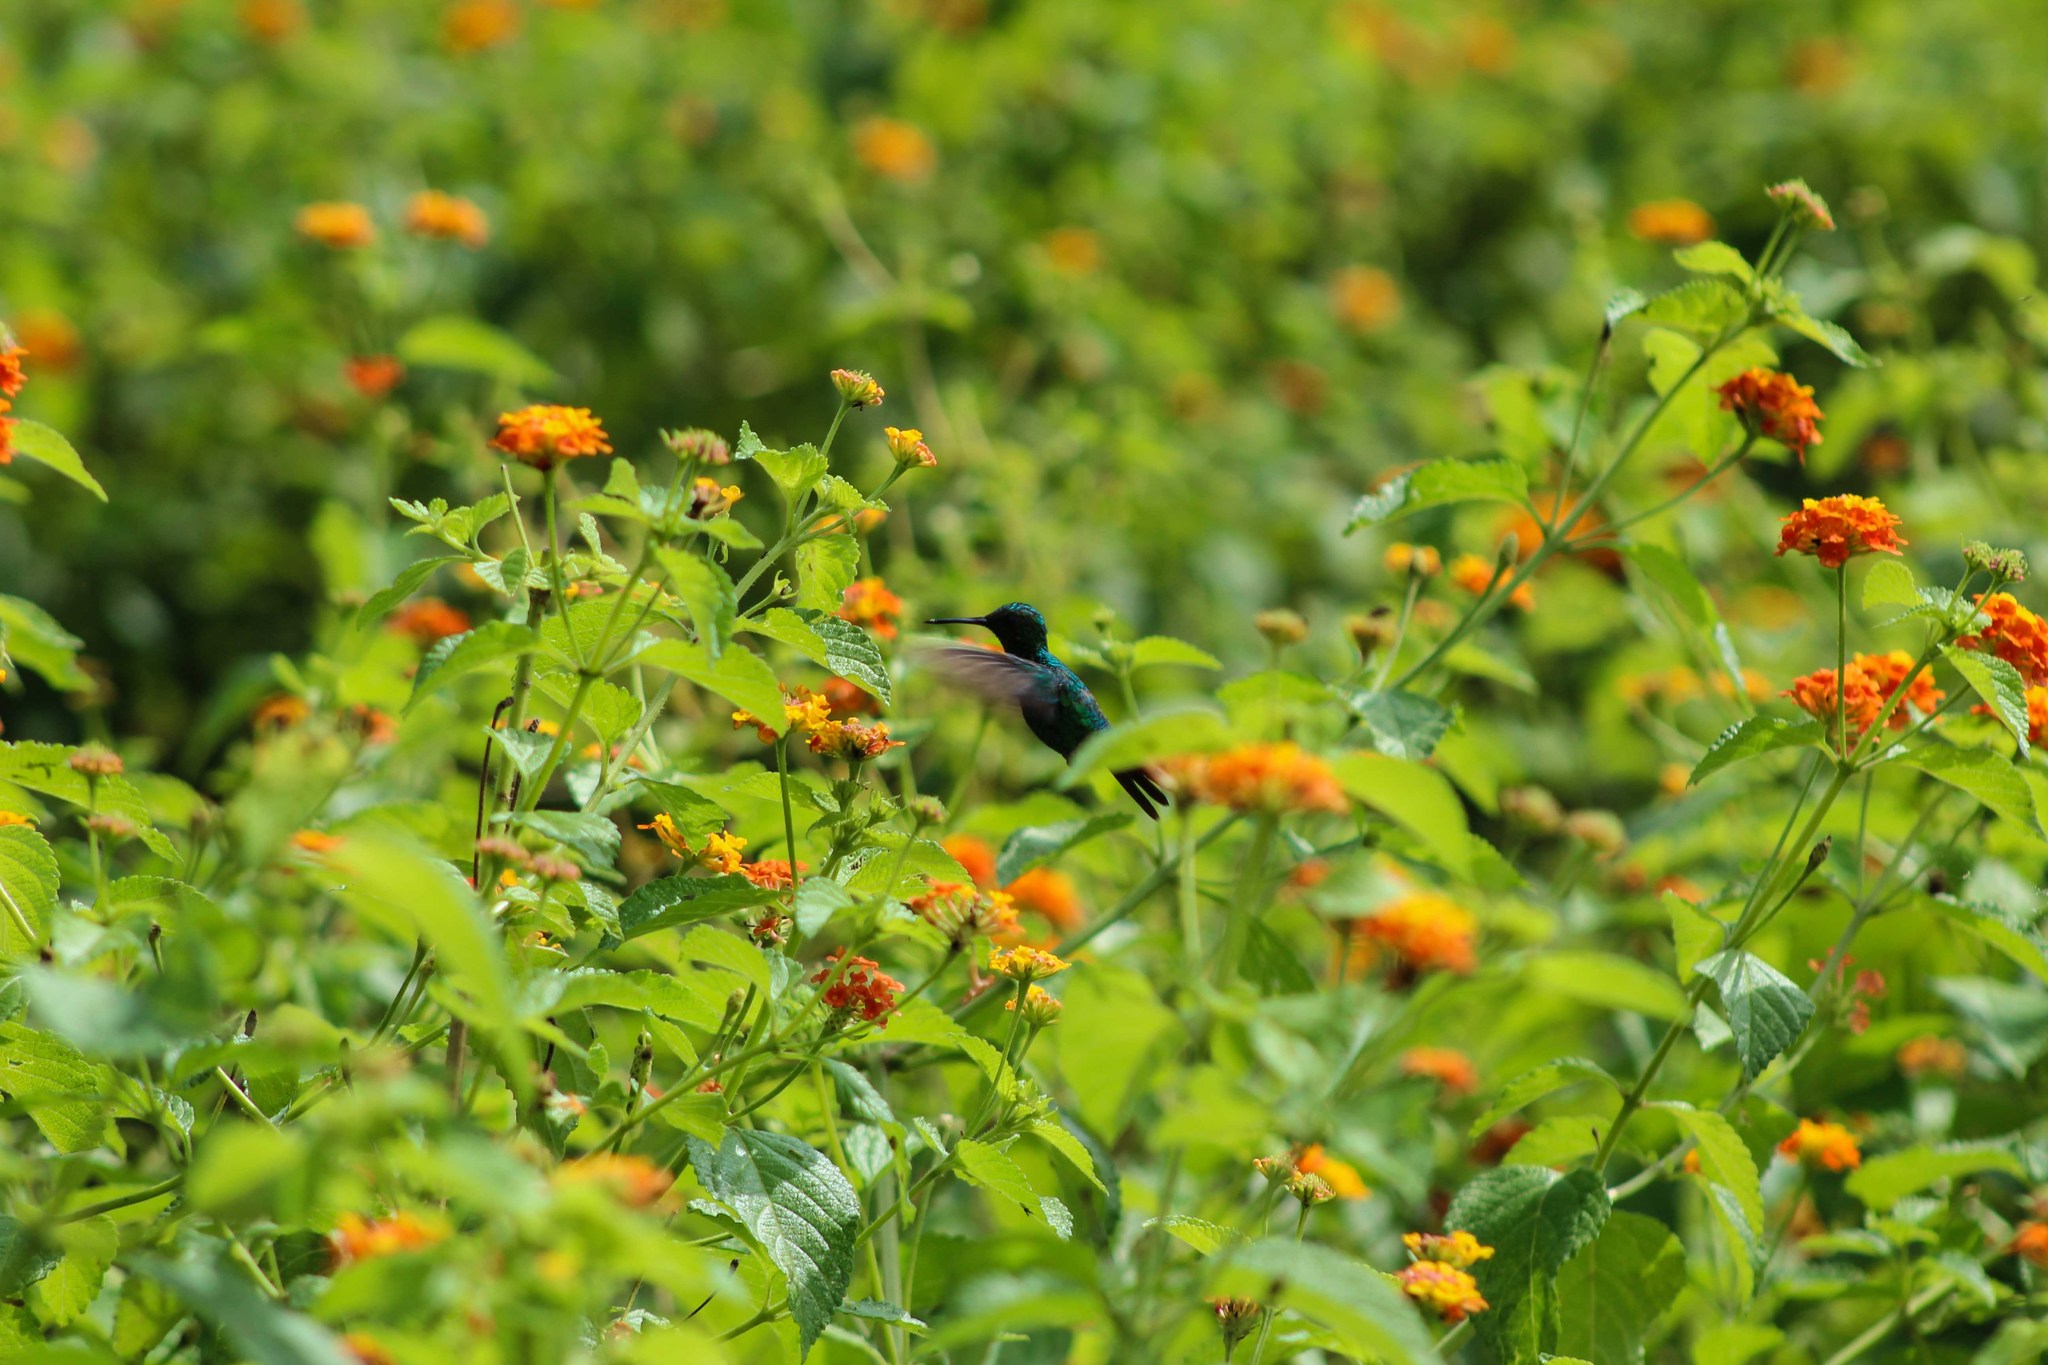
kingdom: Animalia
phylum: Chordata
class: Aves
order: Apodiformes
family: Trochilidae
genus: Chrysuronia
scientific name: Chrysuronia coeruleogularis
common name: Sapphire-throated hummingbird
